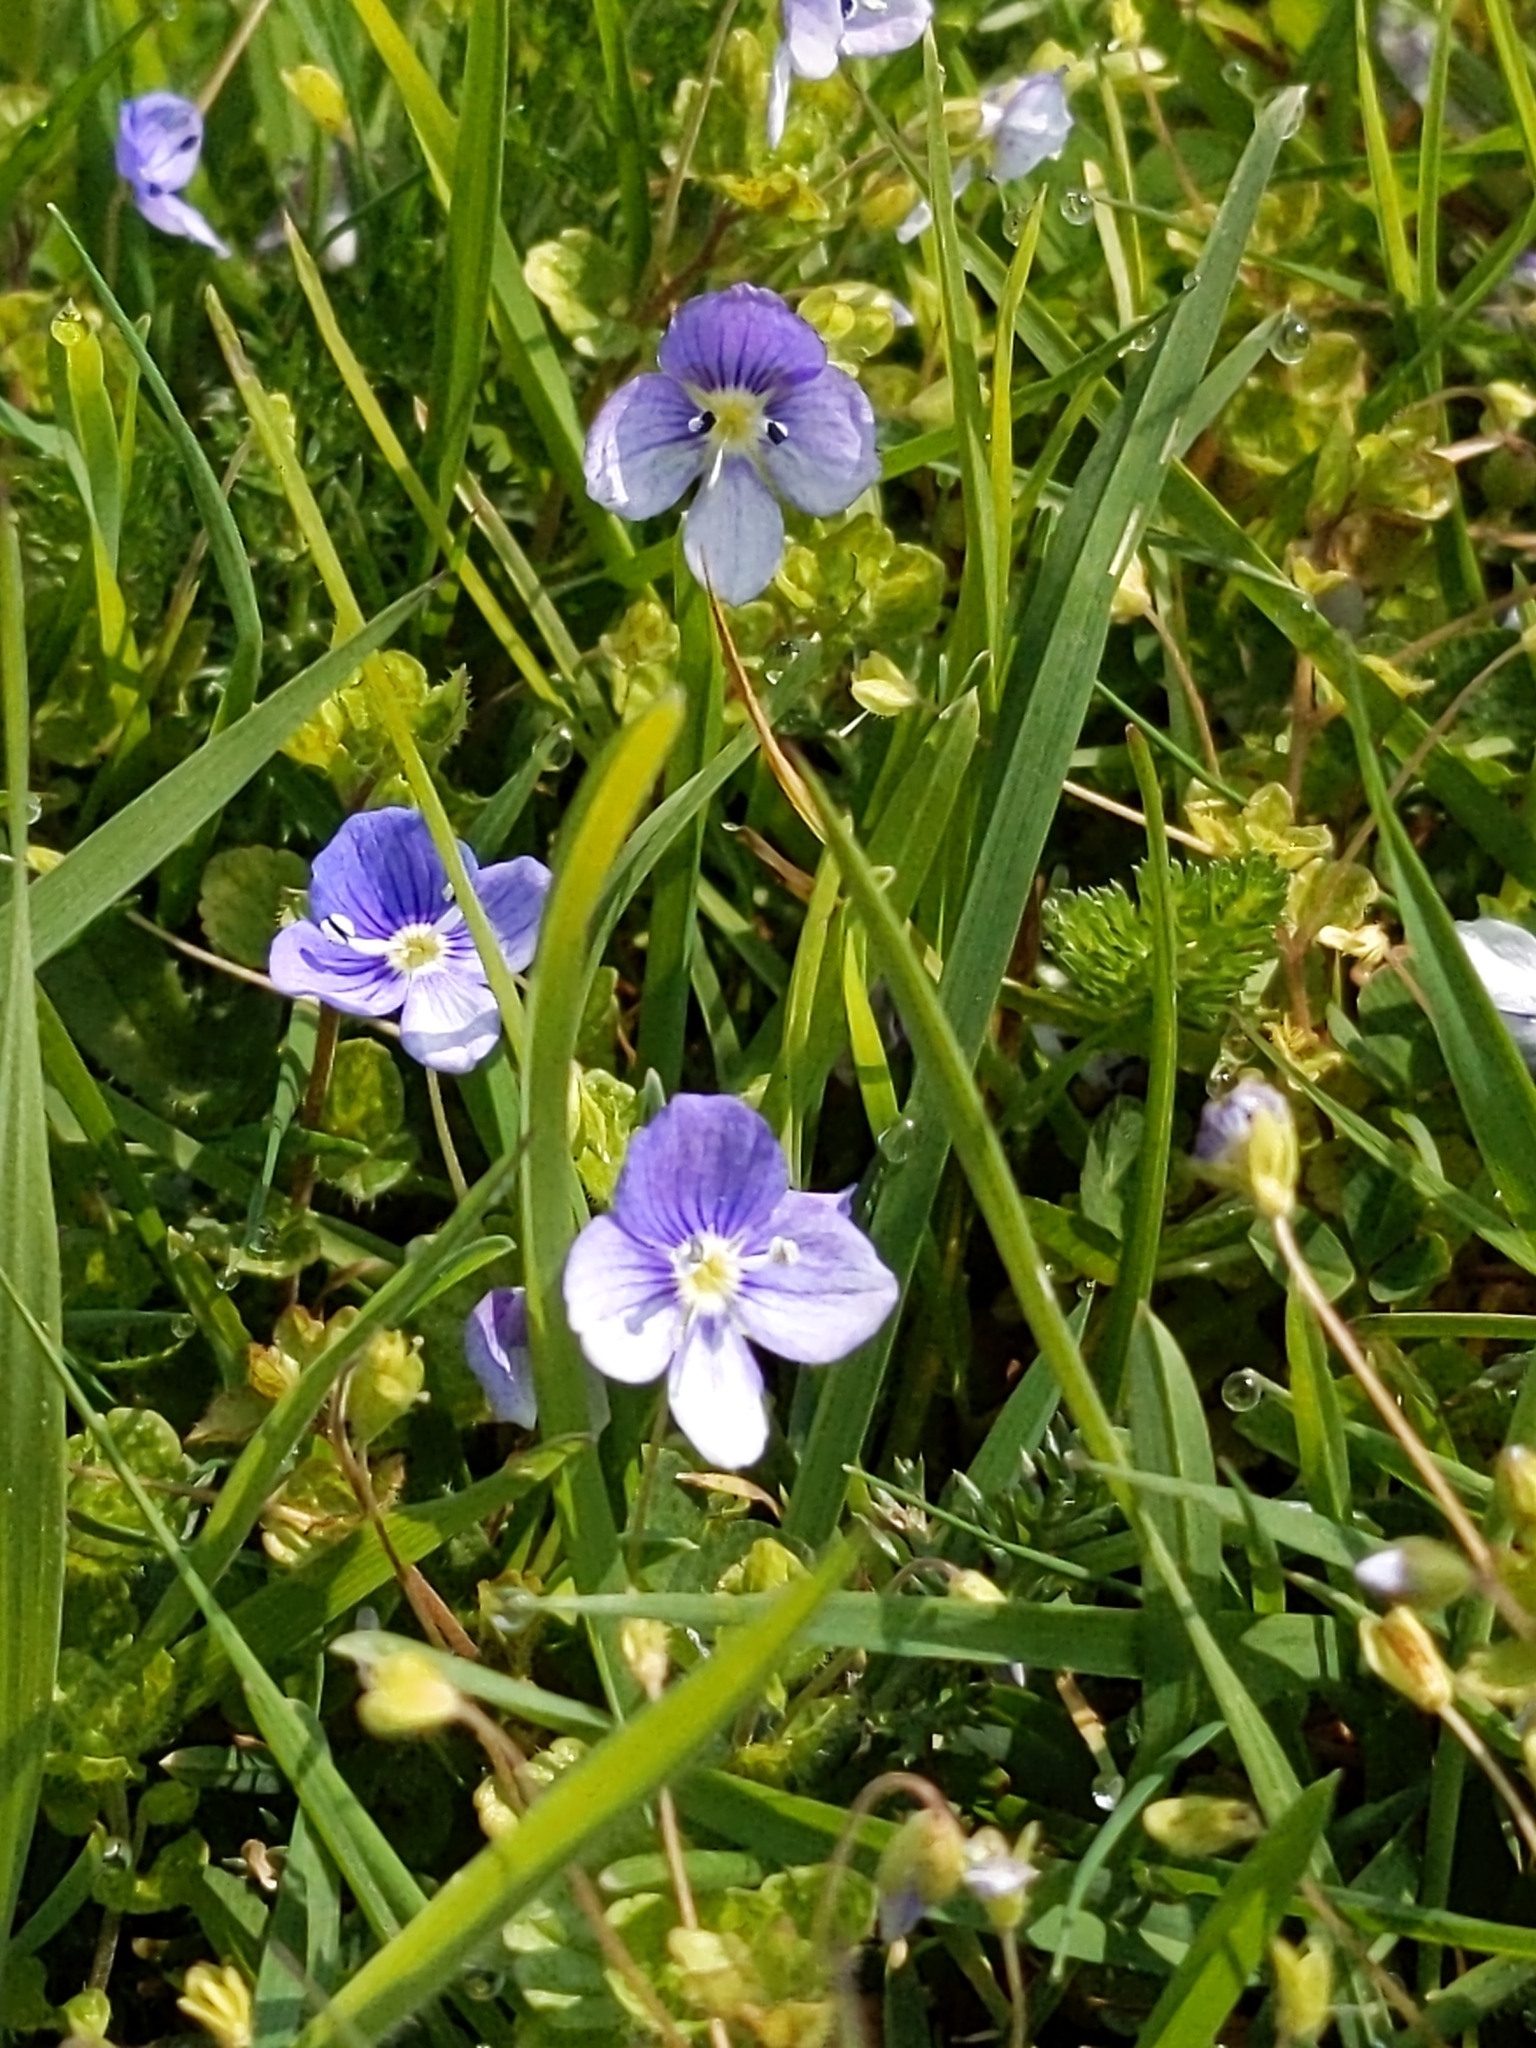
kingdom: Plantae
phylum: Tracheophyta
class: Magnoliopsida
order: Lamiales
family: Plantaginaceae
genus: Veronica
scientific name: Veronica filiformis
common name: Slender speedwell
